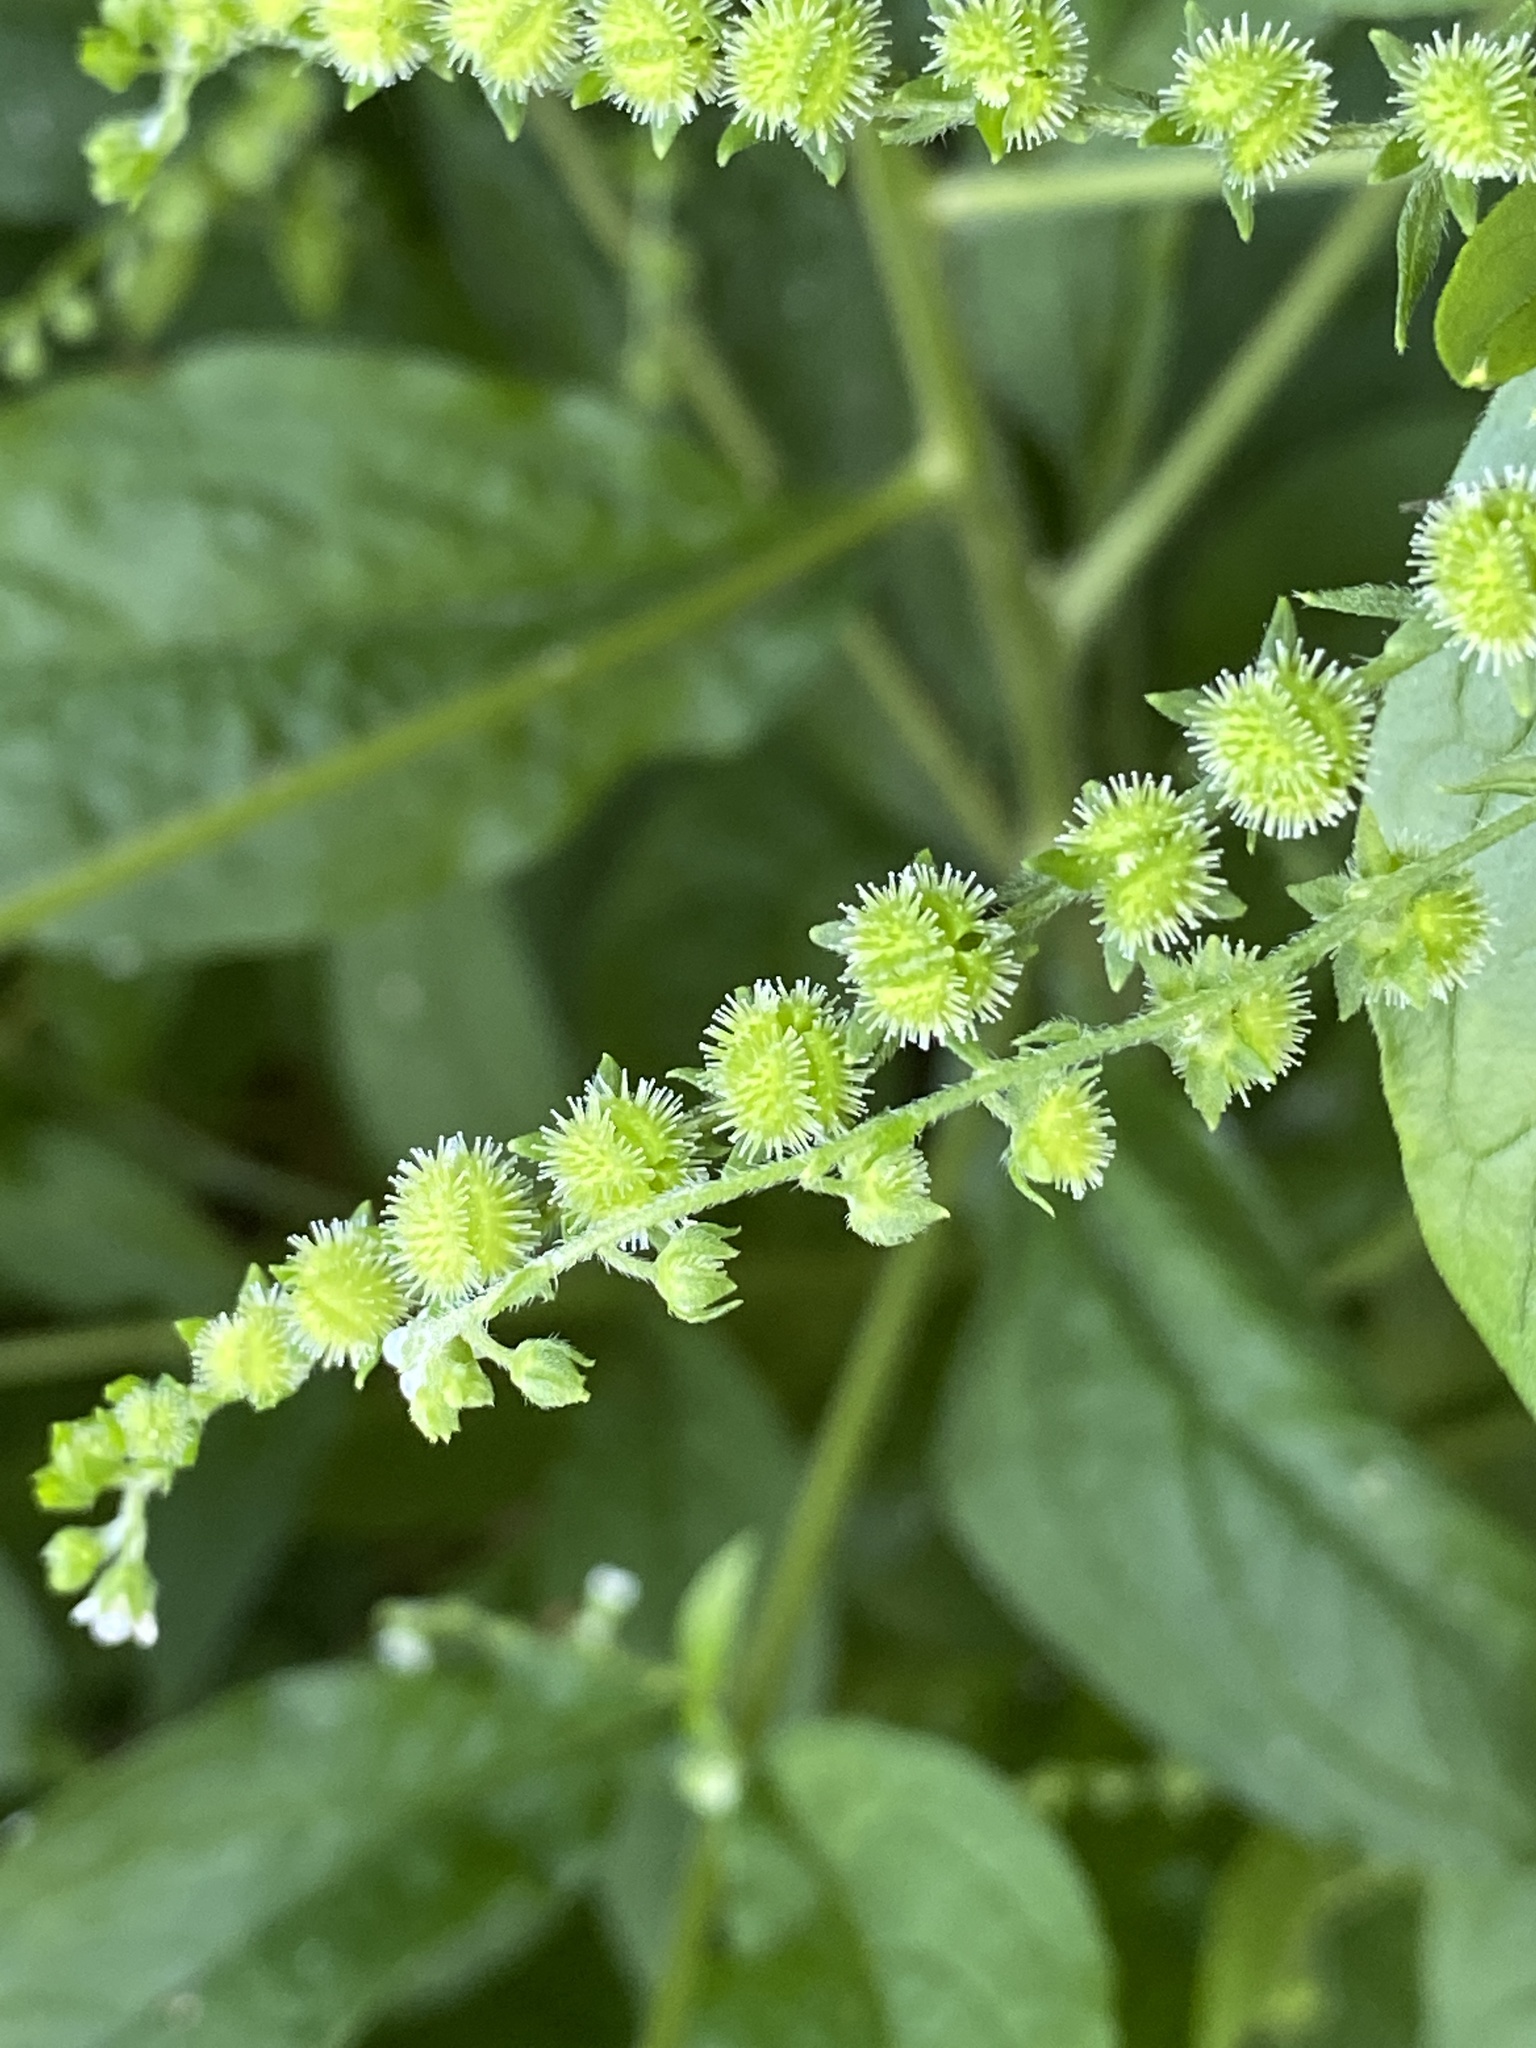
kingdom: Plantae
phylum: Tracheophyta
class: Magnoliopsida
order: Boraginales
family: Boraginaceae
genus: Hackelia
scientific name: Hackelia virginiana
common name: Beggar's-lice
